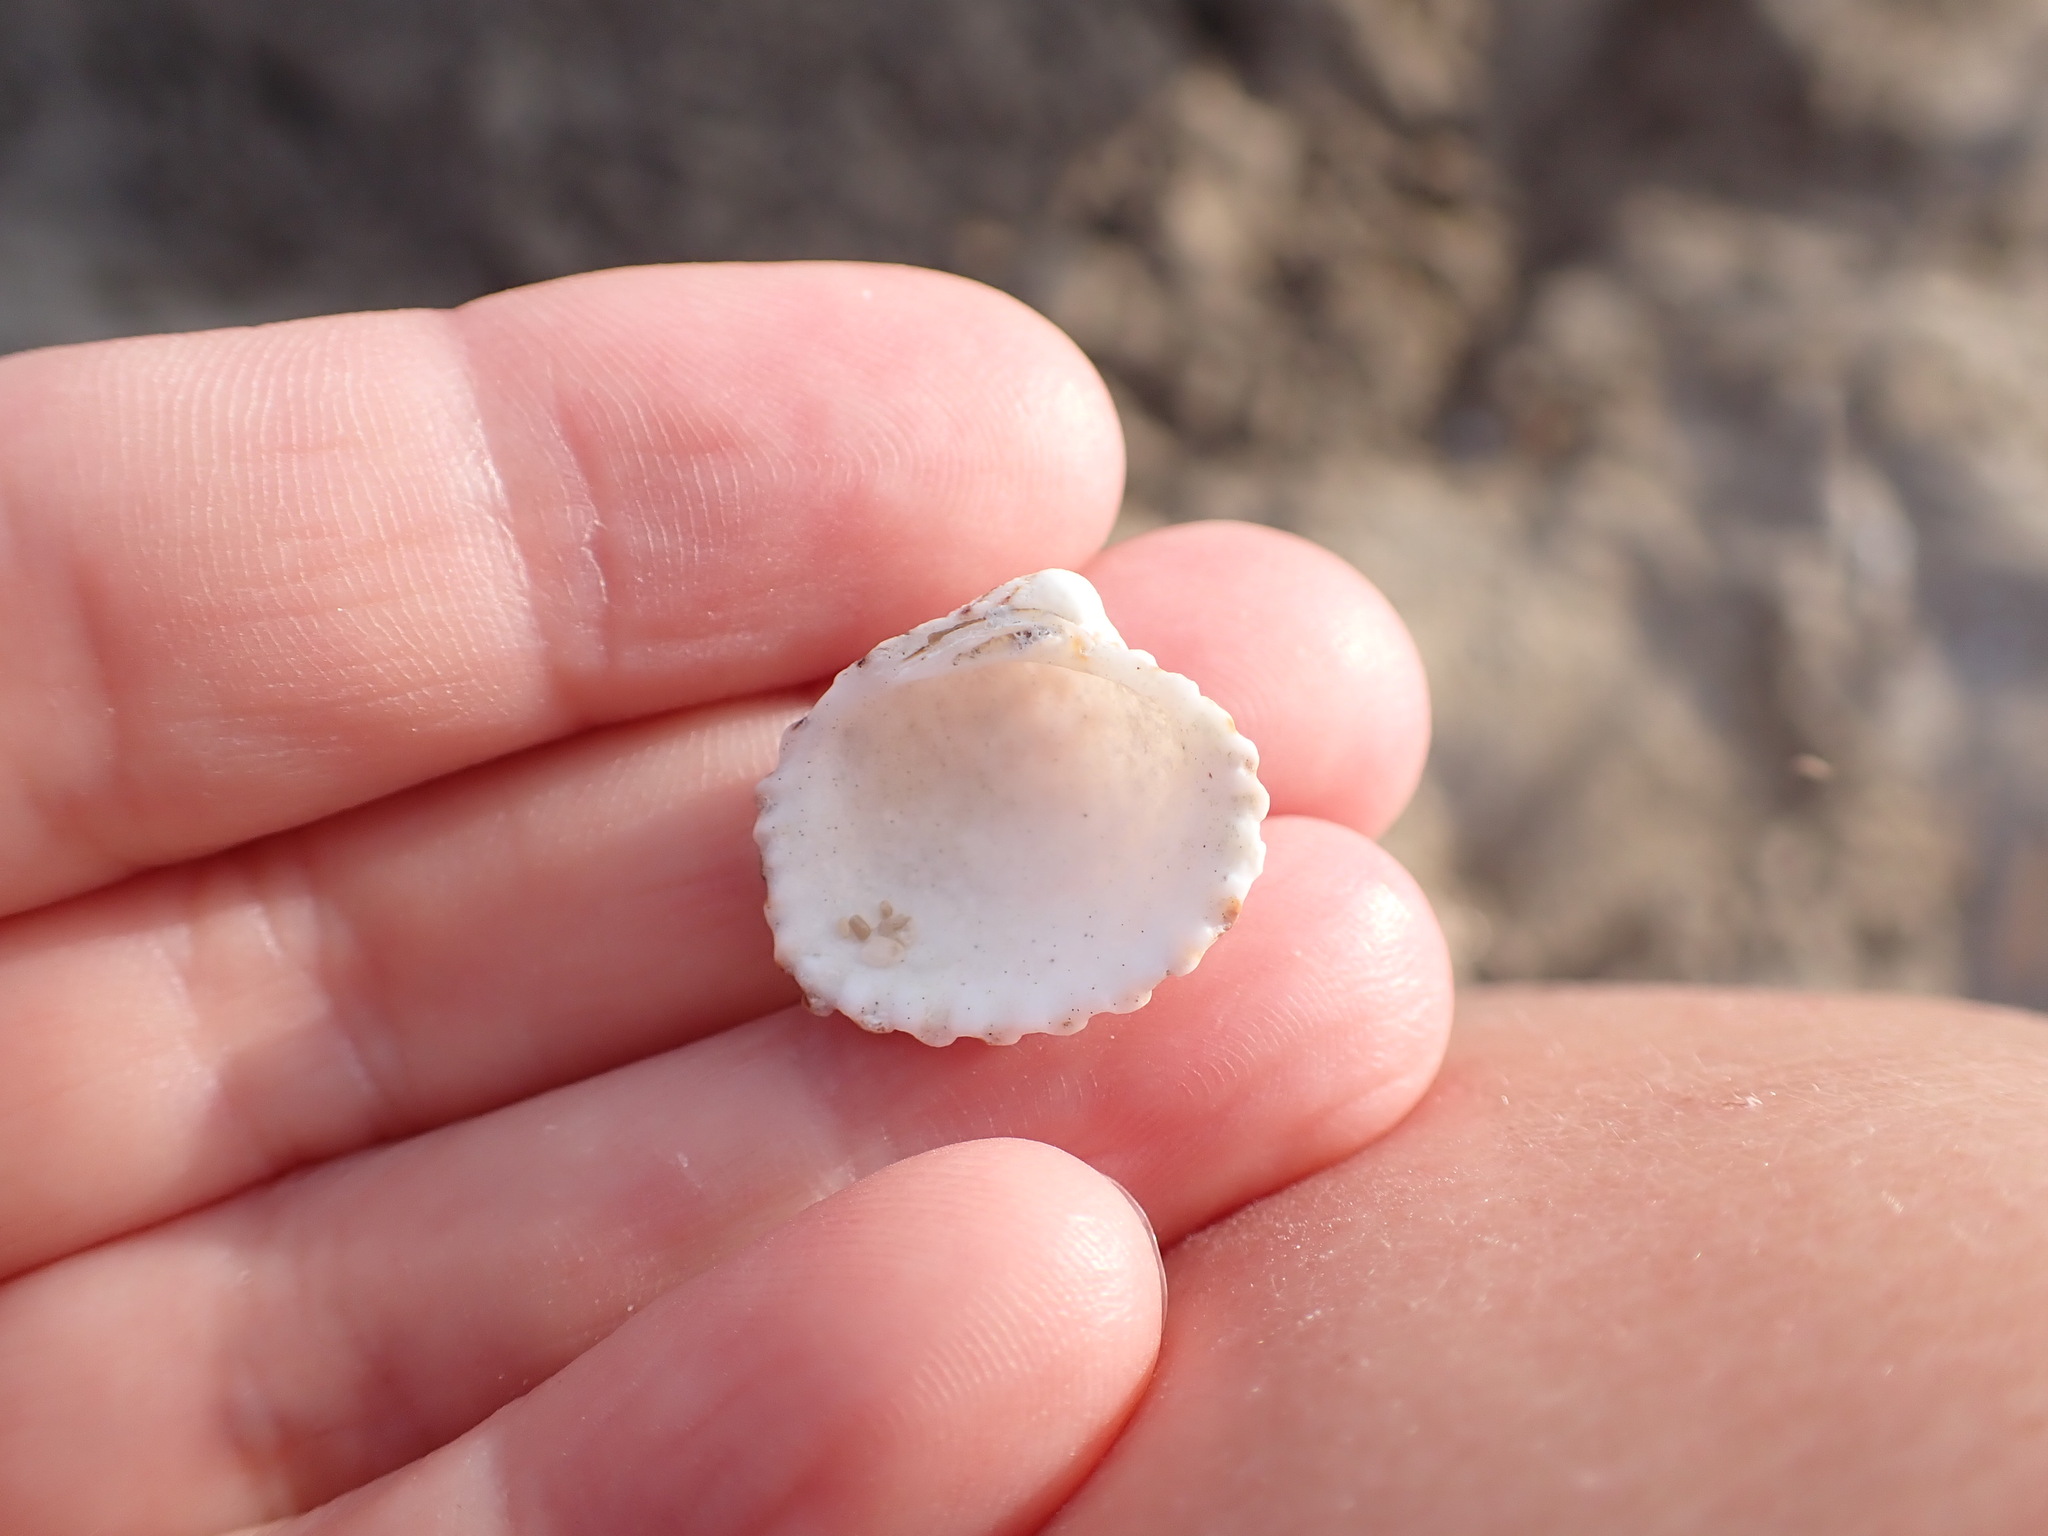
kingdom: Animalia
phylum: Mollusca
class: Bivalvia
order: Carditida
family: Carditidae
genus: Cardites
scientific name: Cardites antiquatus
